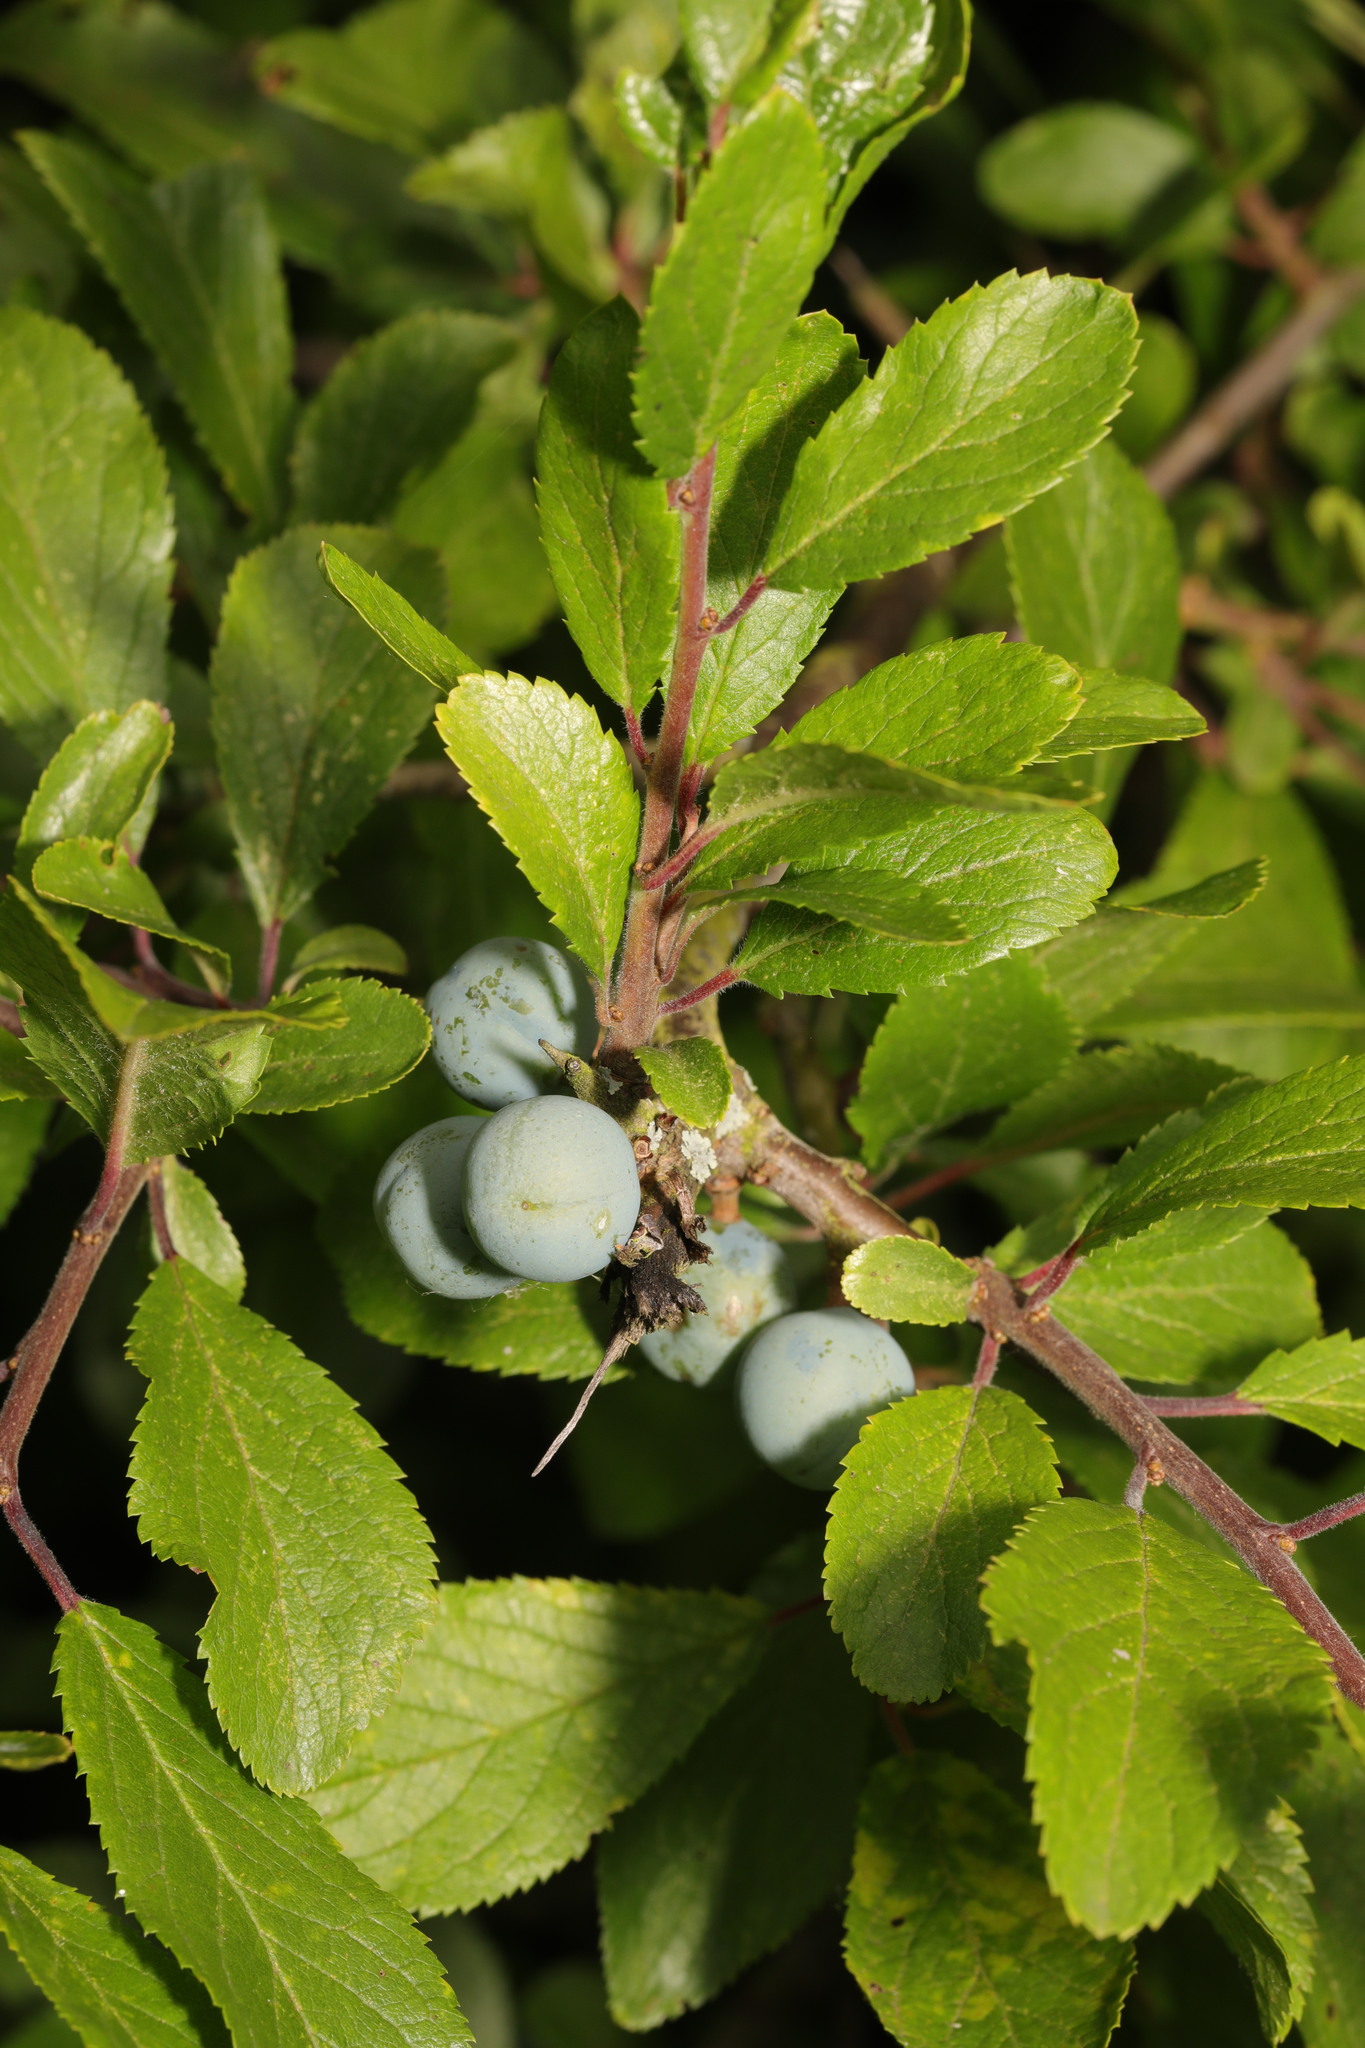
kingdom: Plantae
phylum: Tracheophyta
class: Magnoliopsida
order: Rosales
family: Rosaceae
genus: Prunus
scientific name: Prunus spinosa
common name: Blackthorn
